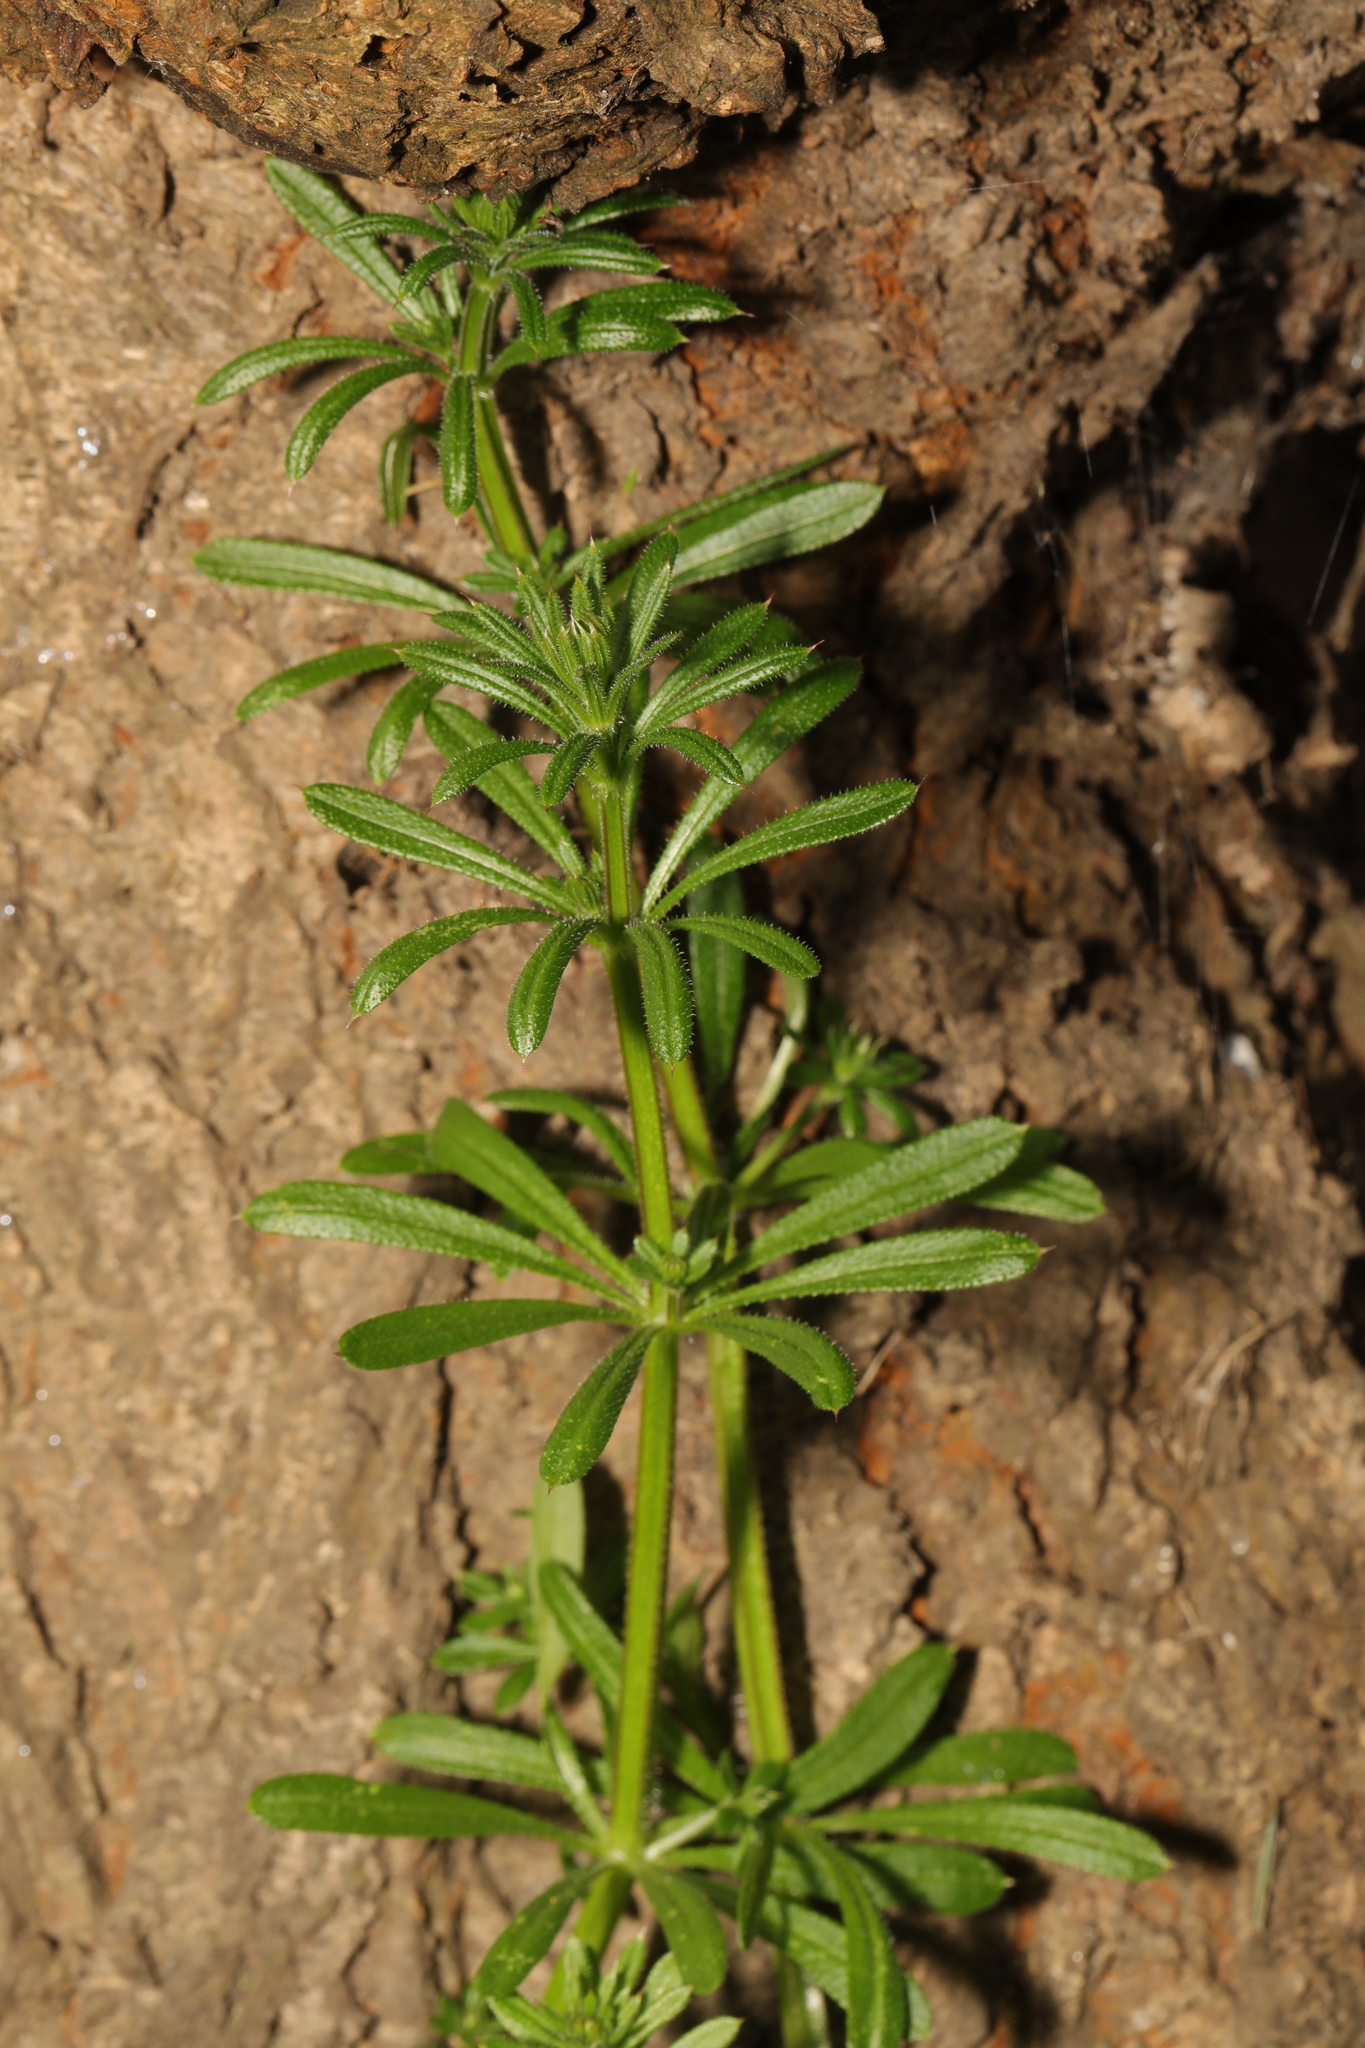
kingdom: Plantae
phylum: Tracheophyta
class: Magnoliopsida
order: Gentianales
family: Rubiaceae
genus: Galium
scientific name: Galium aparine
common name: Cleavers
